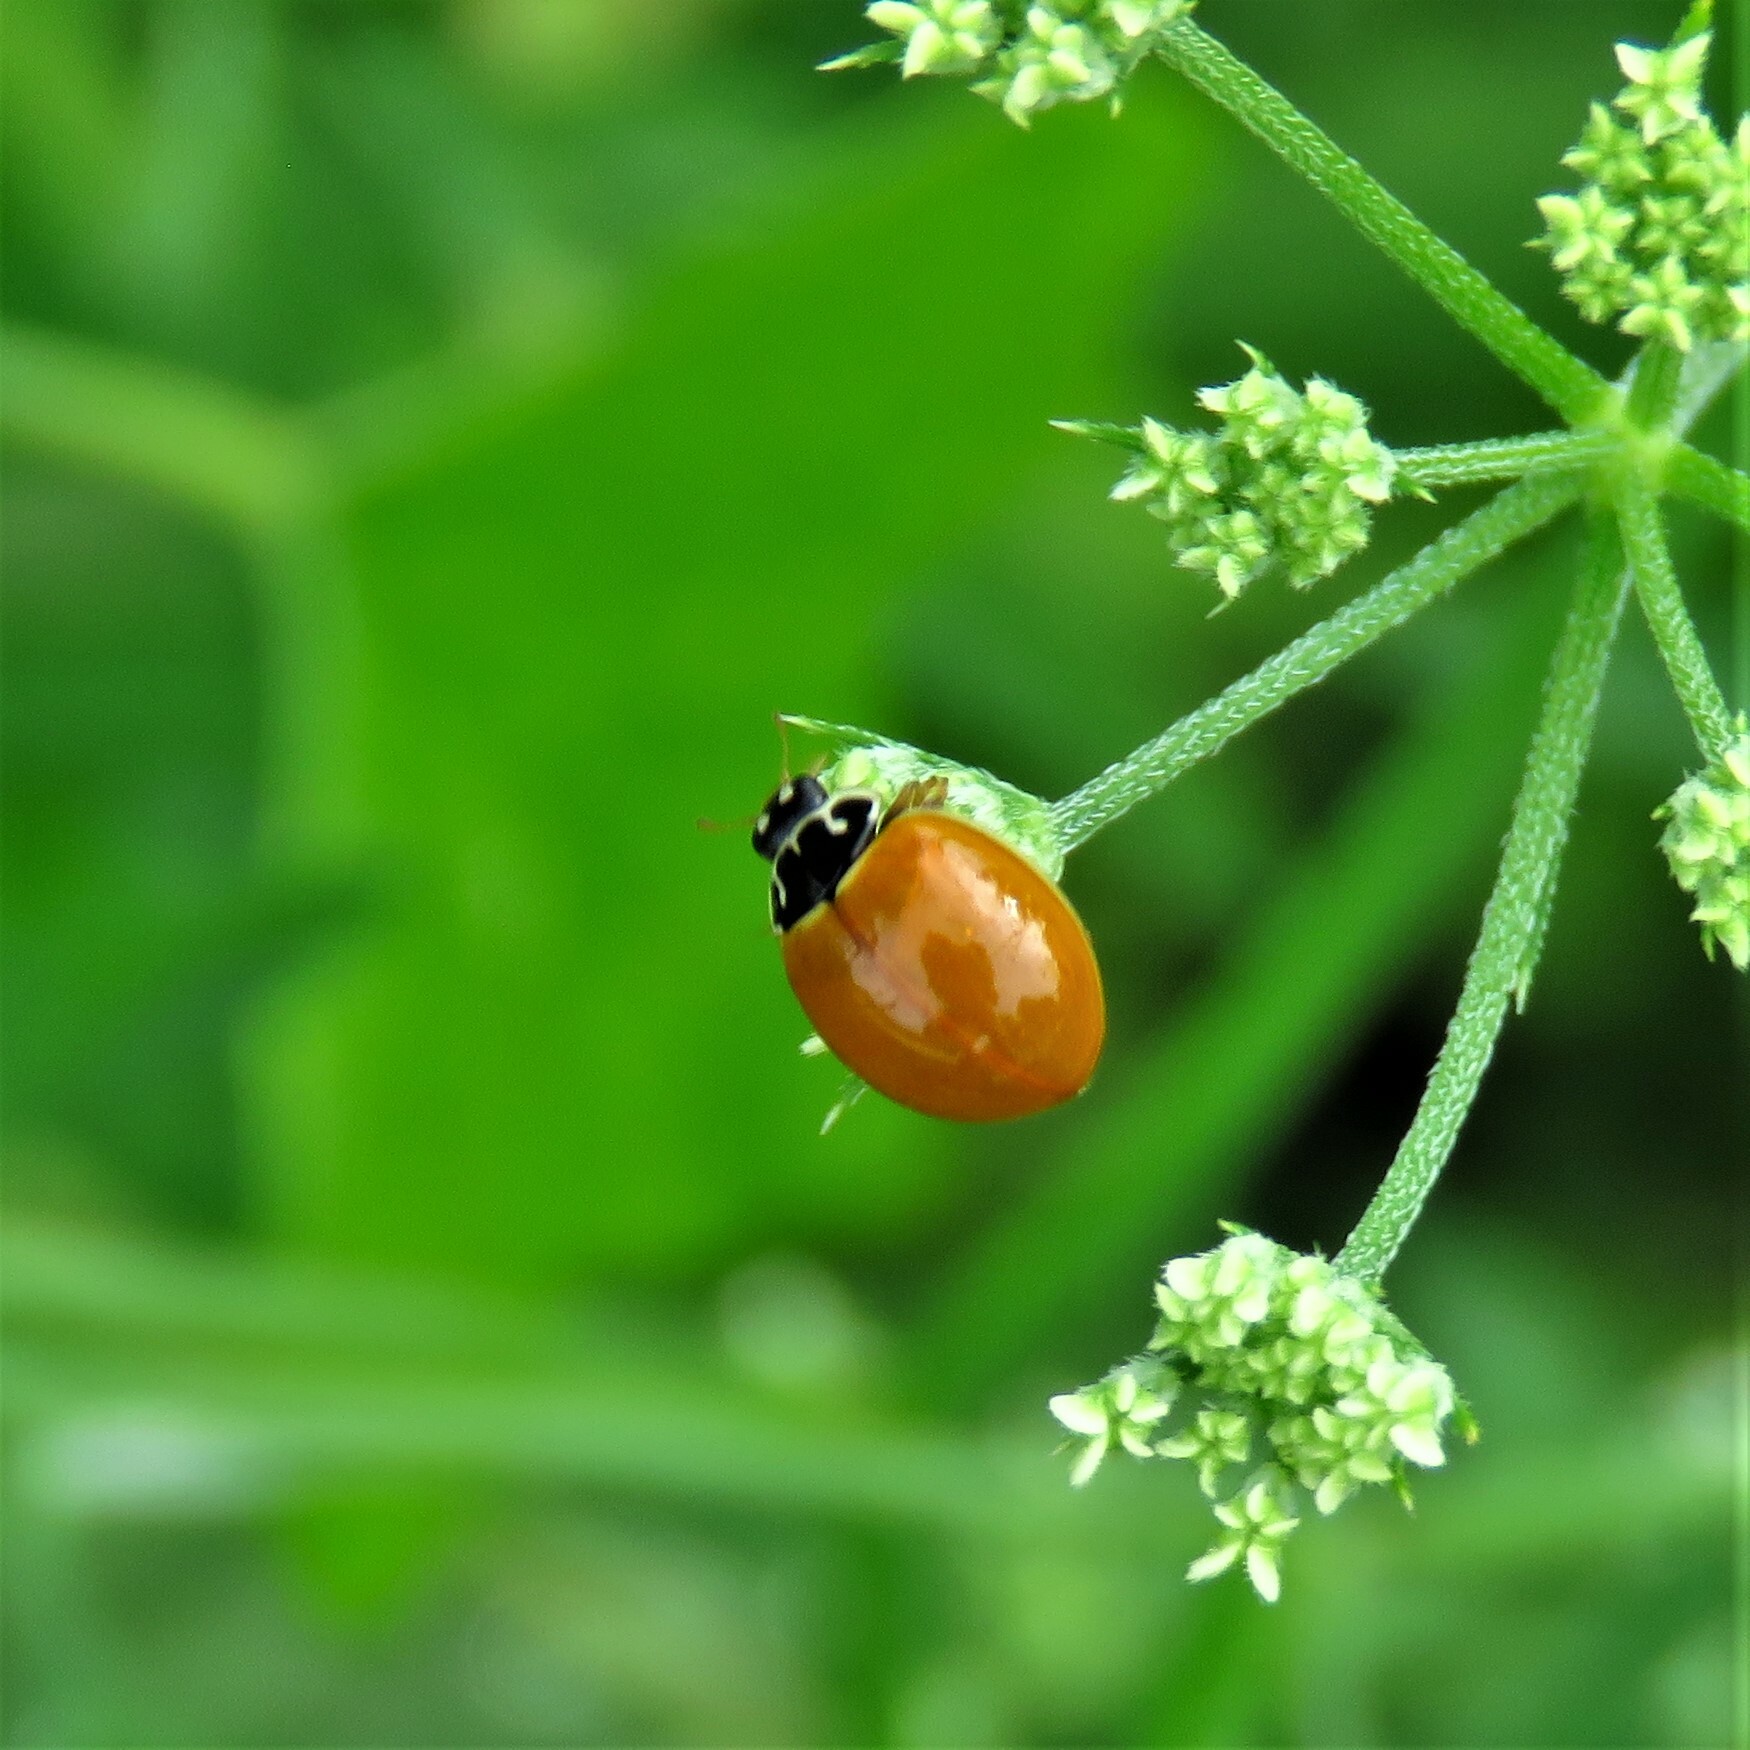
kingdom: Animalia
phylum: Arthropoda
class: Insecta
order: Coleoptera
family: Coccinellidae
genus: Cycloneda
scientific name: Cycloneda munda
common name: Polished lady beetle
